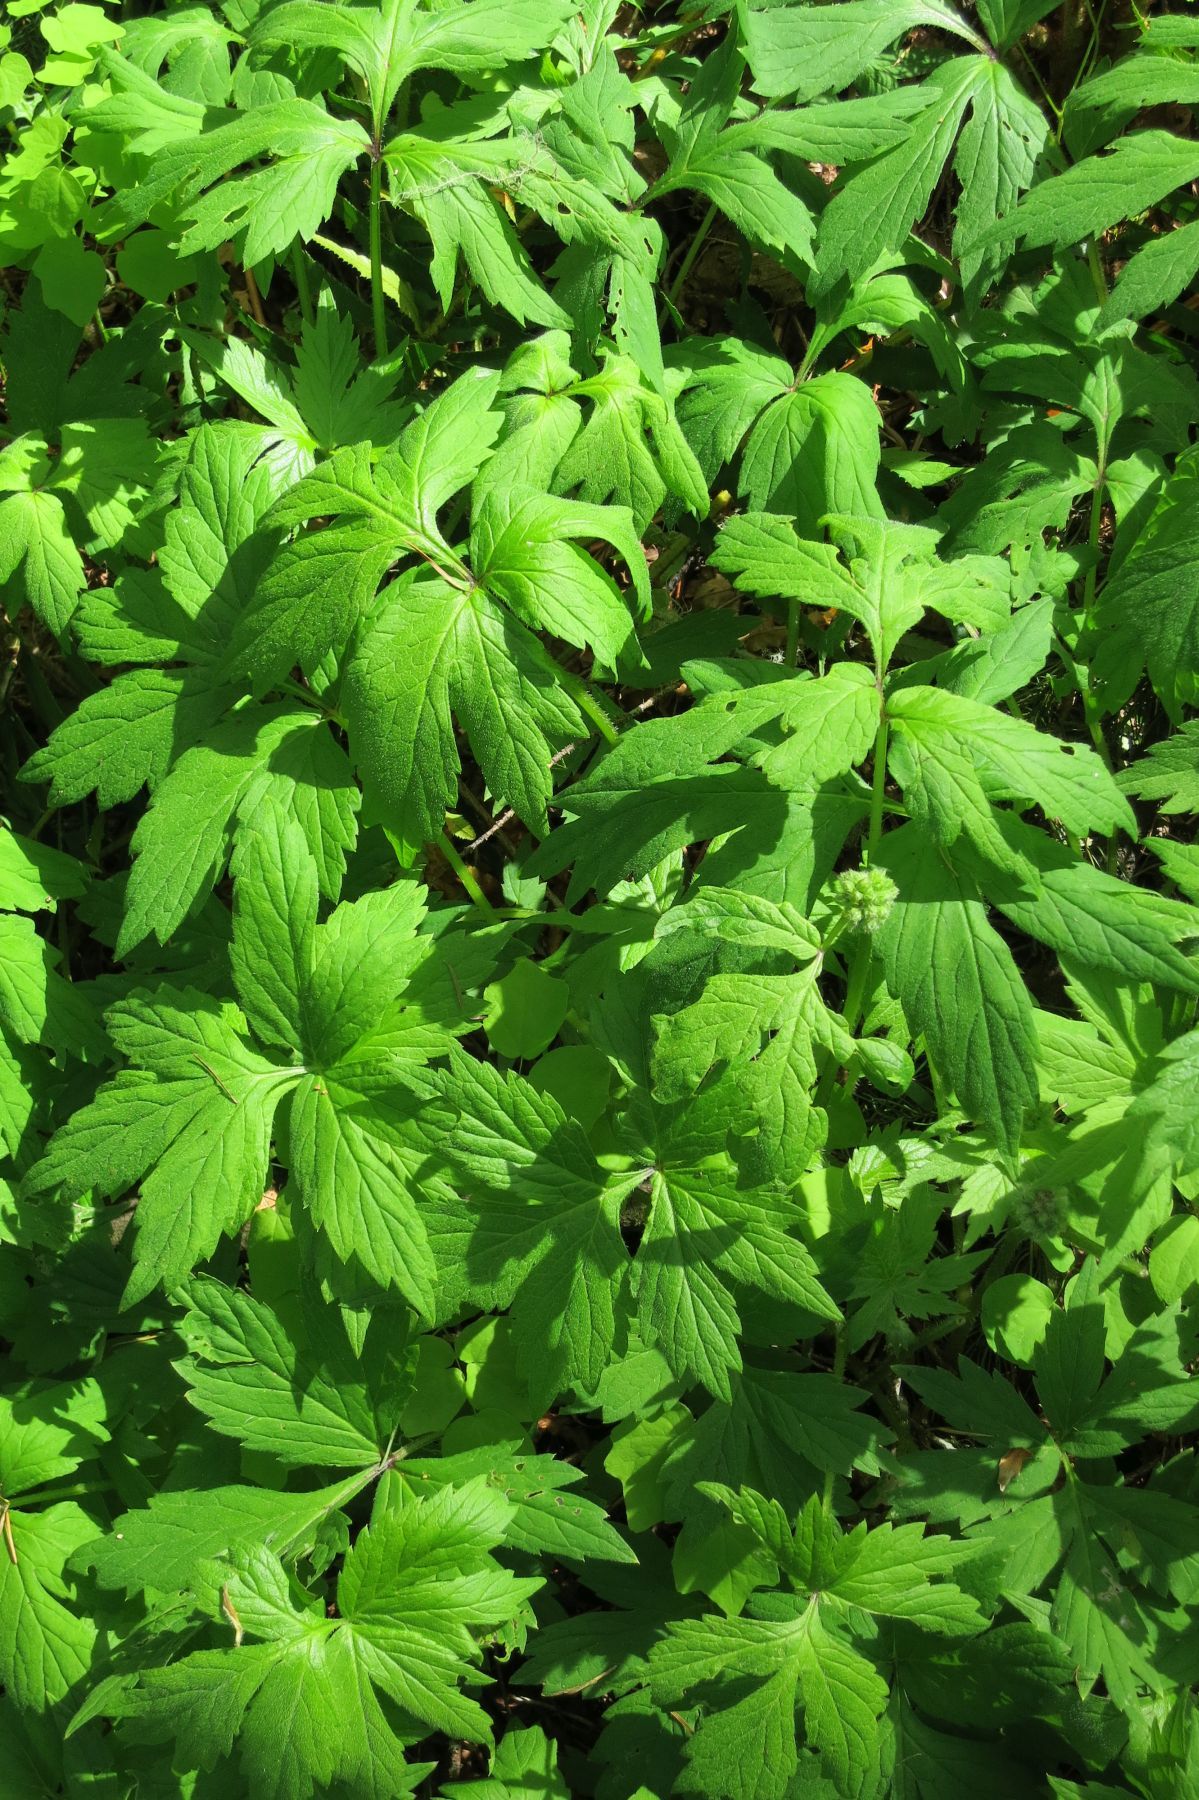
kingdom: Plantae
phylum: Tracheophyta
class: Magnoliopsida
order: Boraginales
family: Hydrophyllaceae
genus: Hydrophyllum
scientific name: Hydrophyllum tenuipes
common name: Pacific waterleaf
